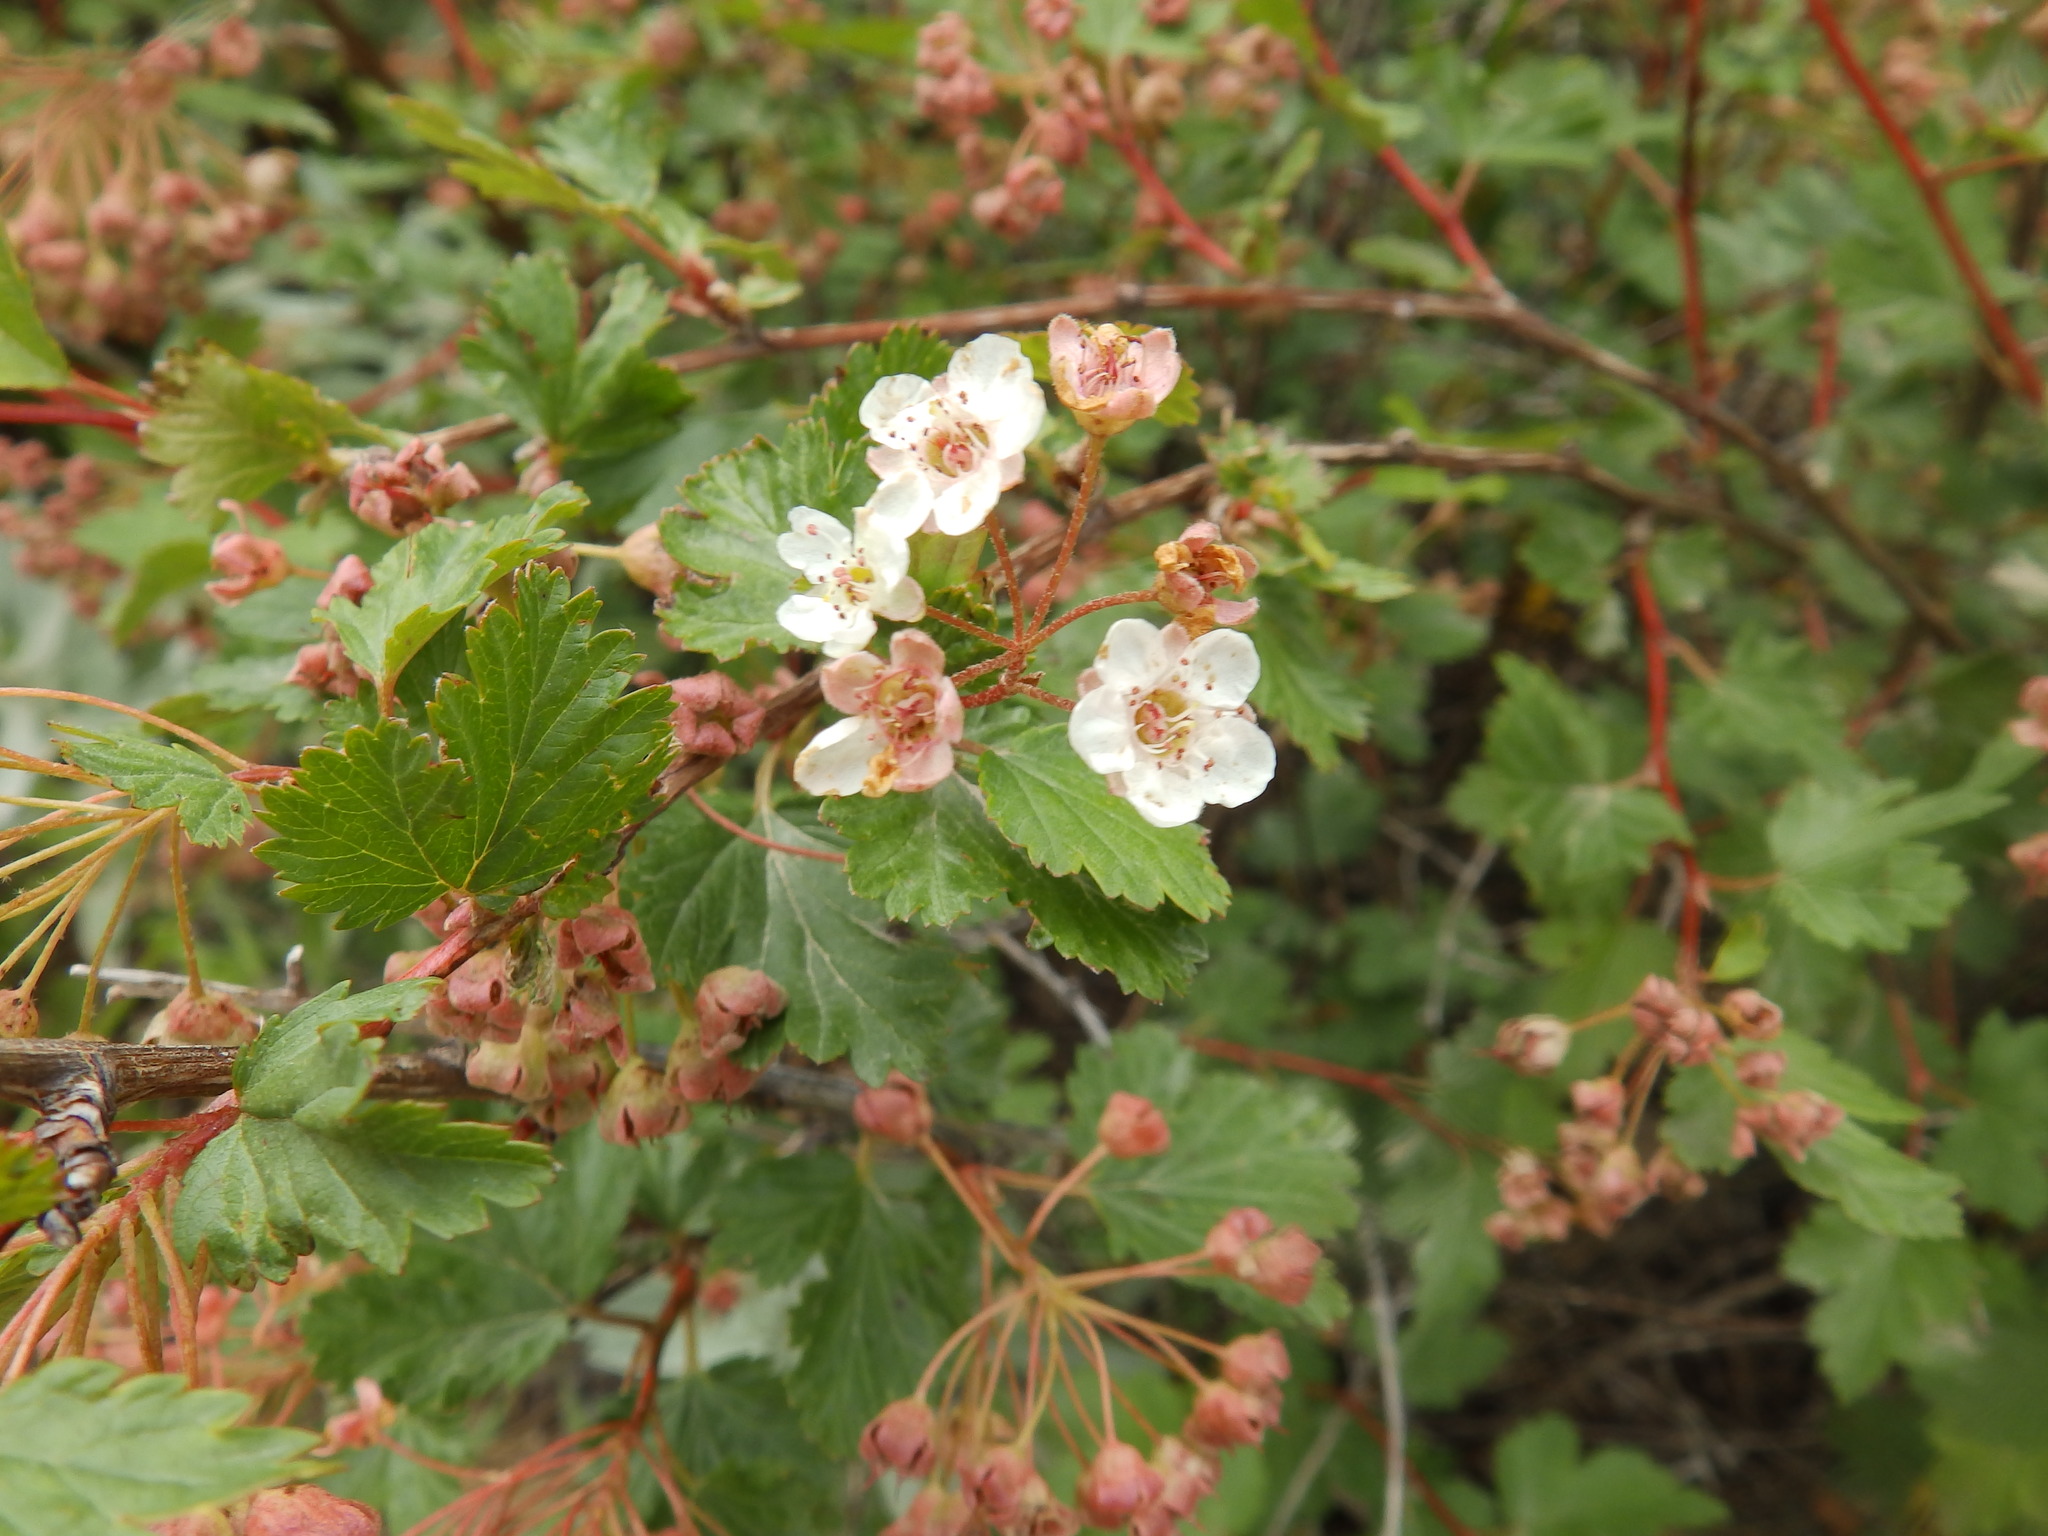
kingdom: Plantae
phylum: Tracheophyta
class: Magnoliopsida
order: Rosales
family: Rosaceae
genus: Physocarpus
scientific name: Physocarpus monogynus
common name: Mountain ninebark
